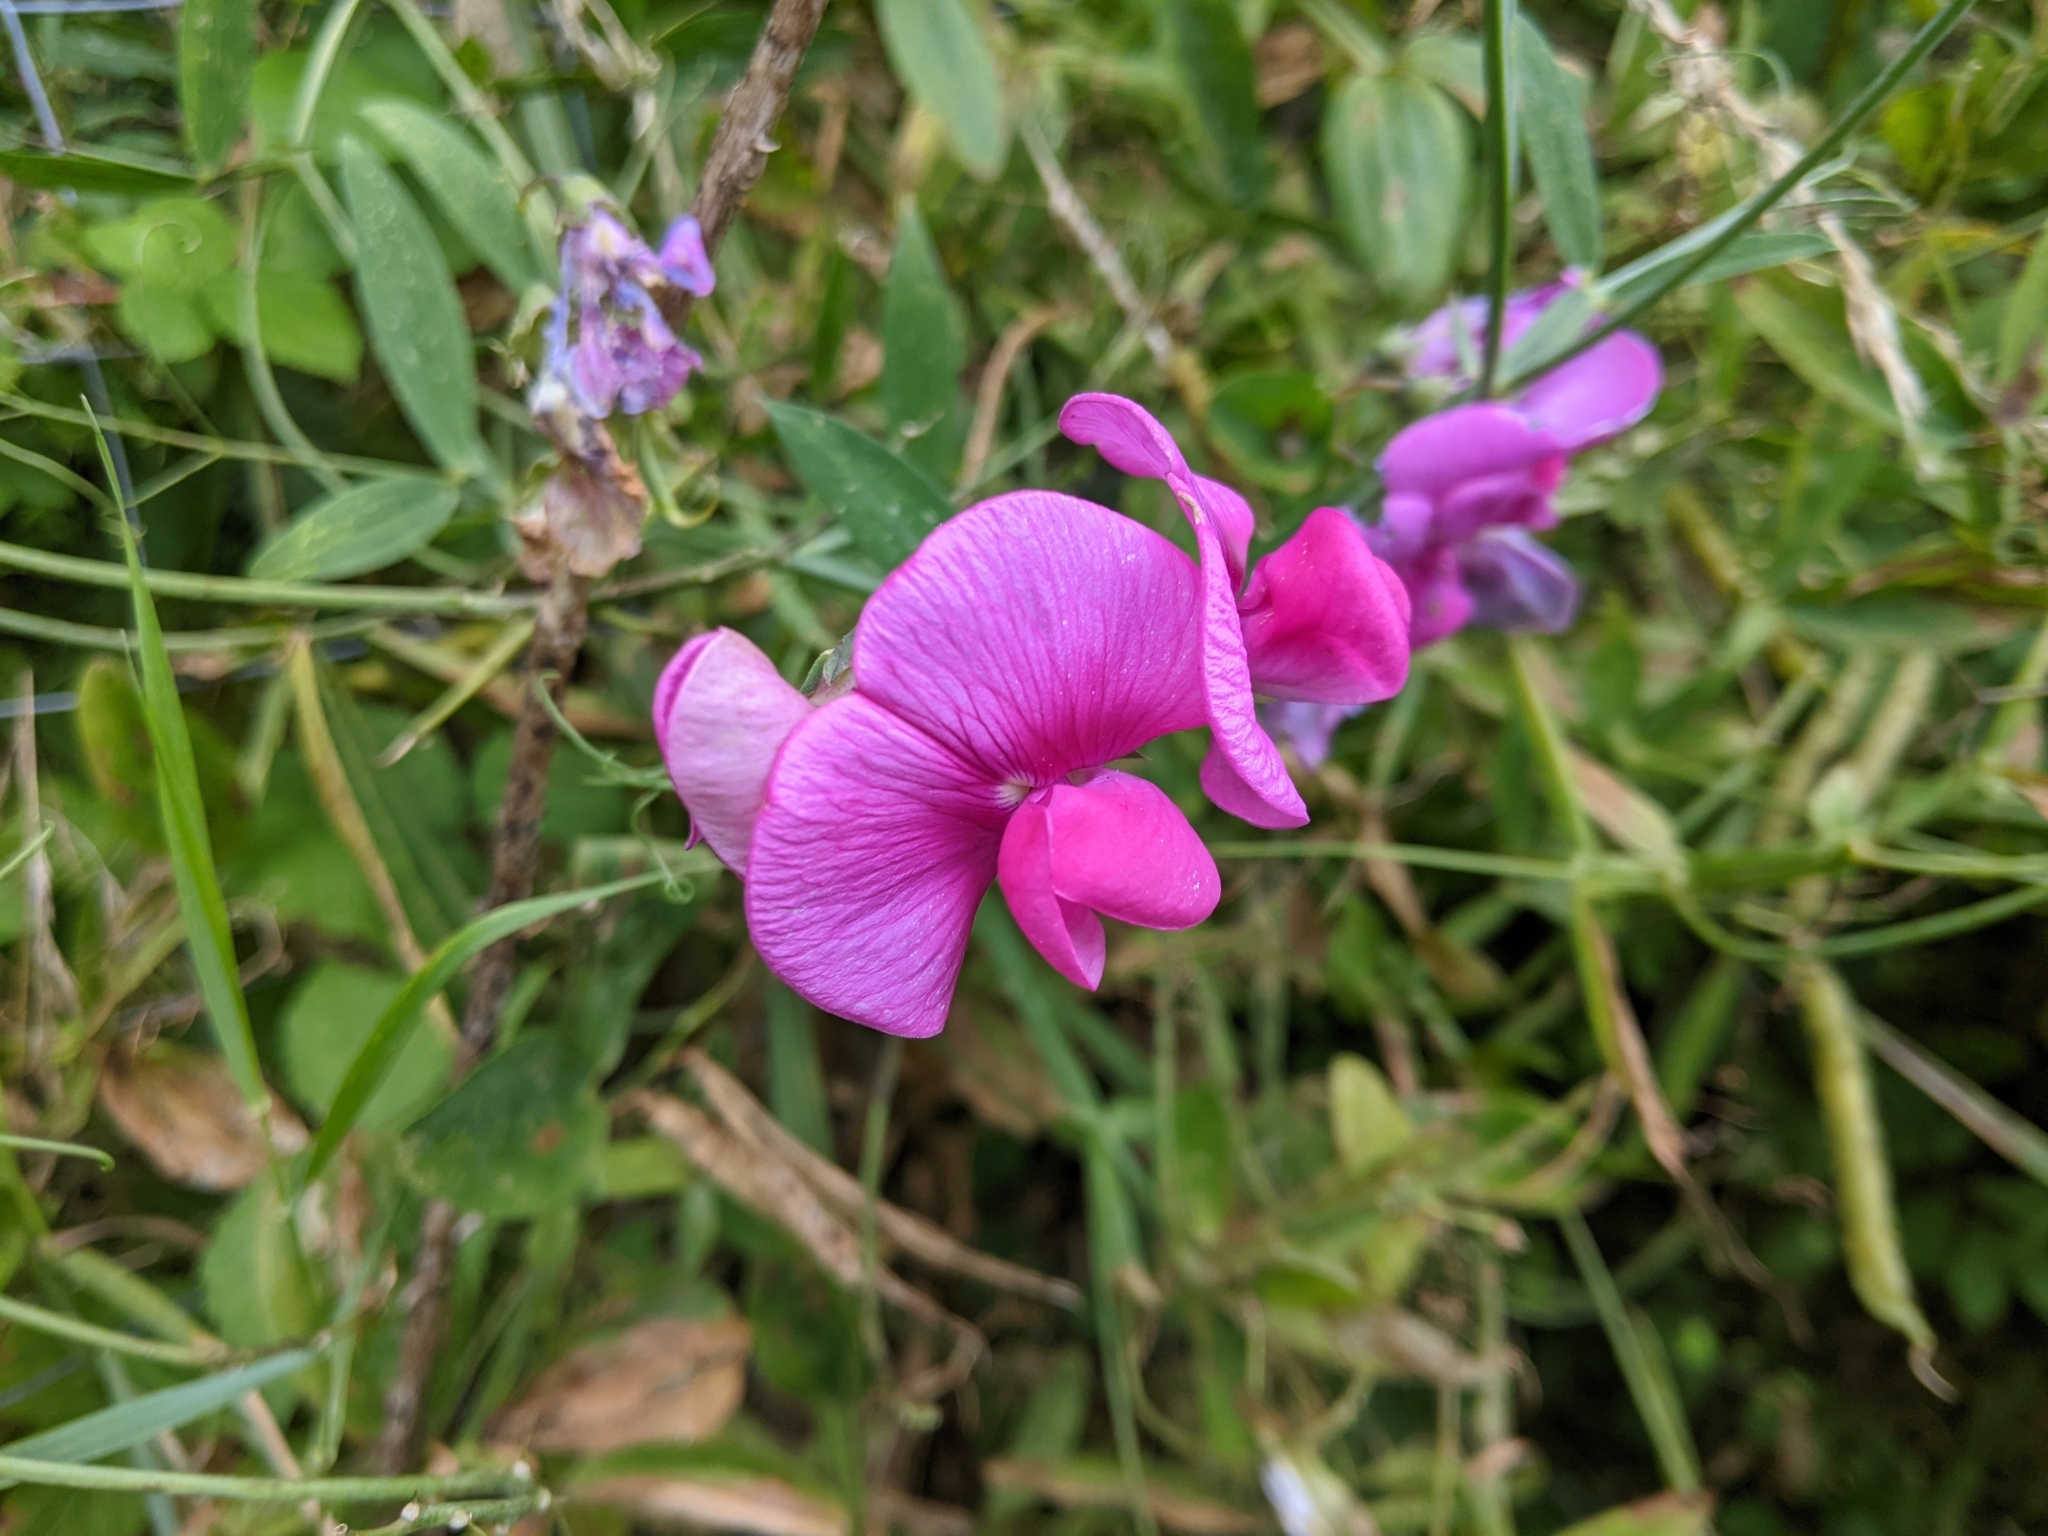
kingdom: Plantae
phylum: Tracheophyta
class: Magnoliopsida
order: Fabales
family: Fabaceae
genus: Lathyrus
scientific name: Lathyrus latifolius
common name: Perennial pea
